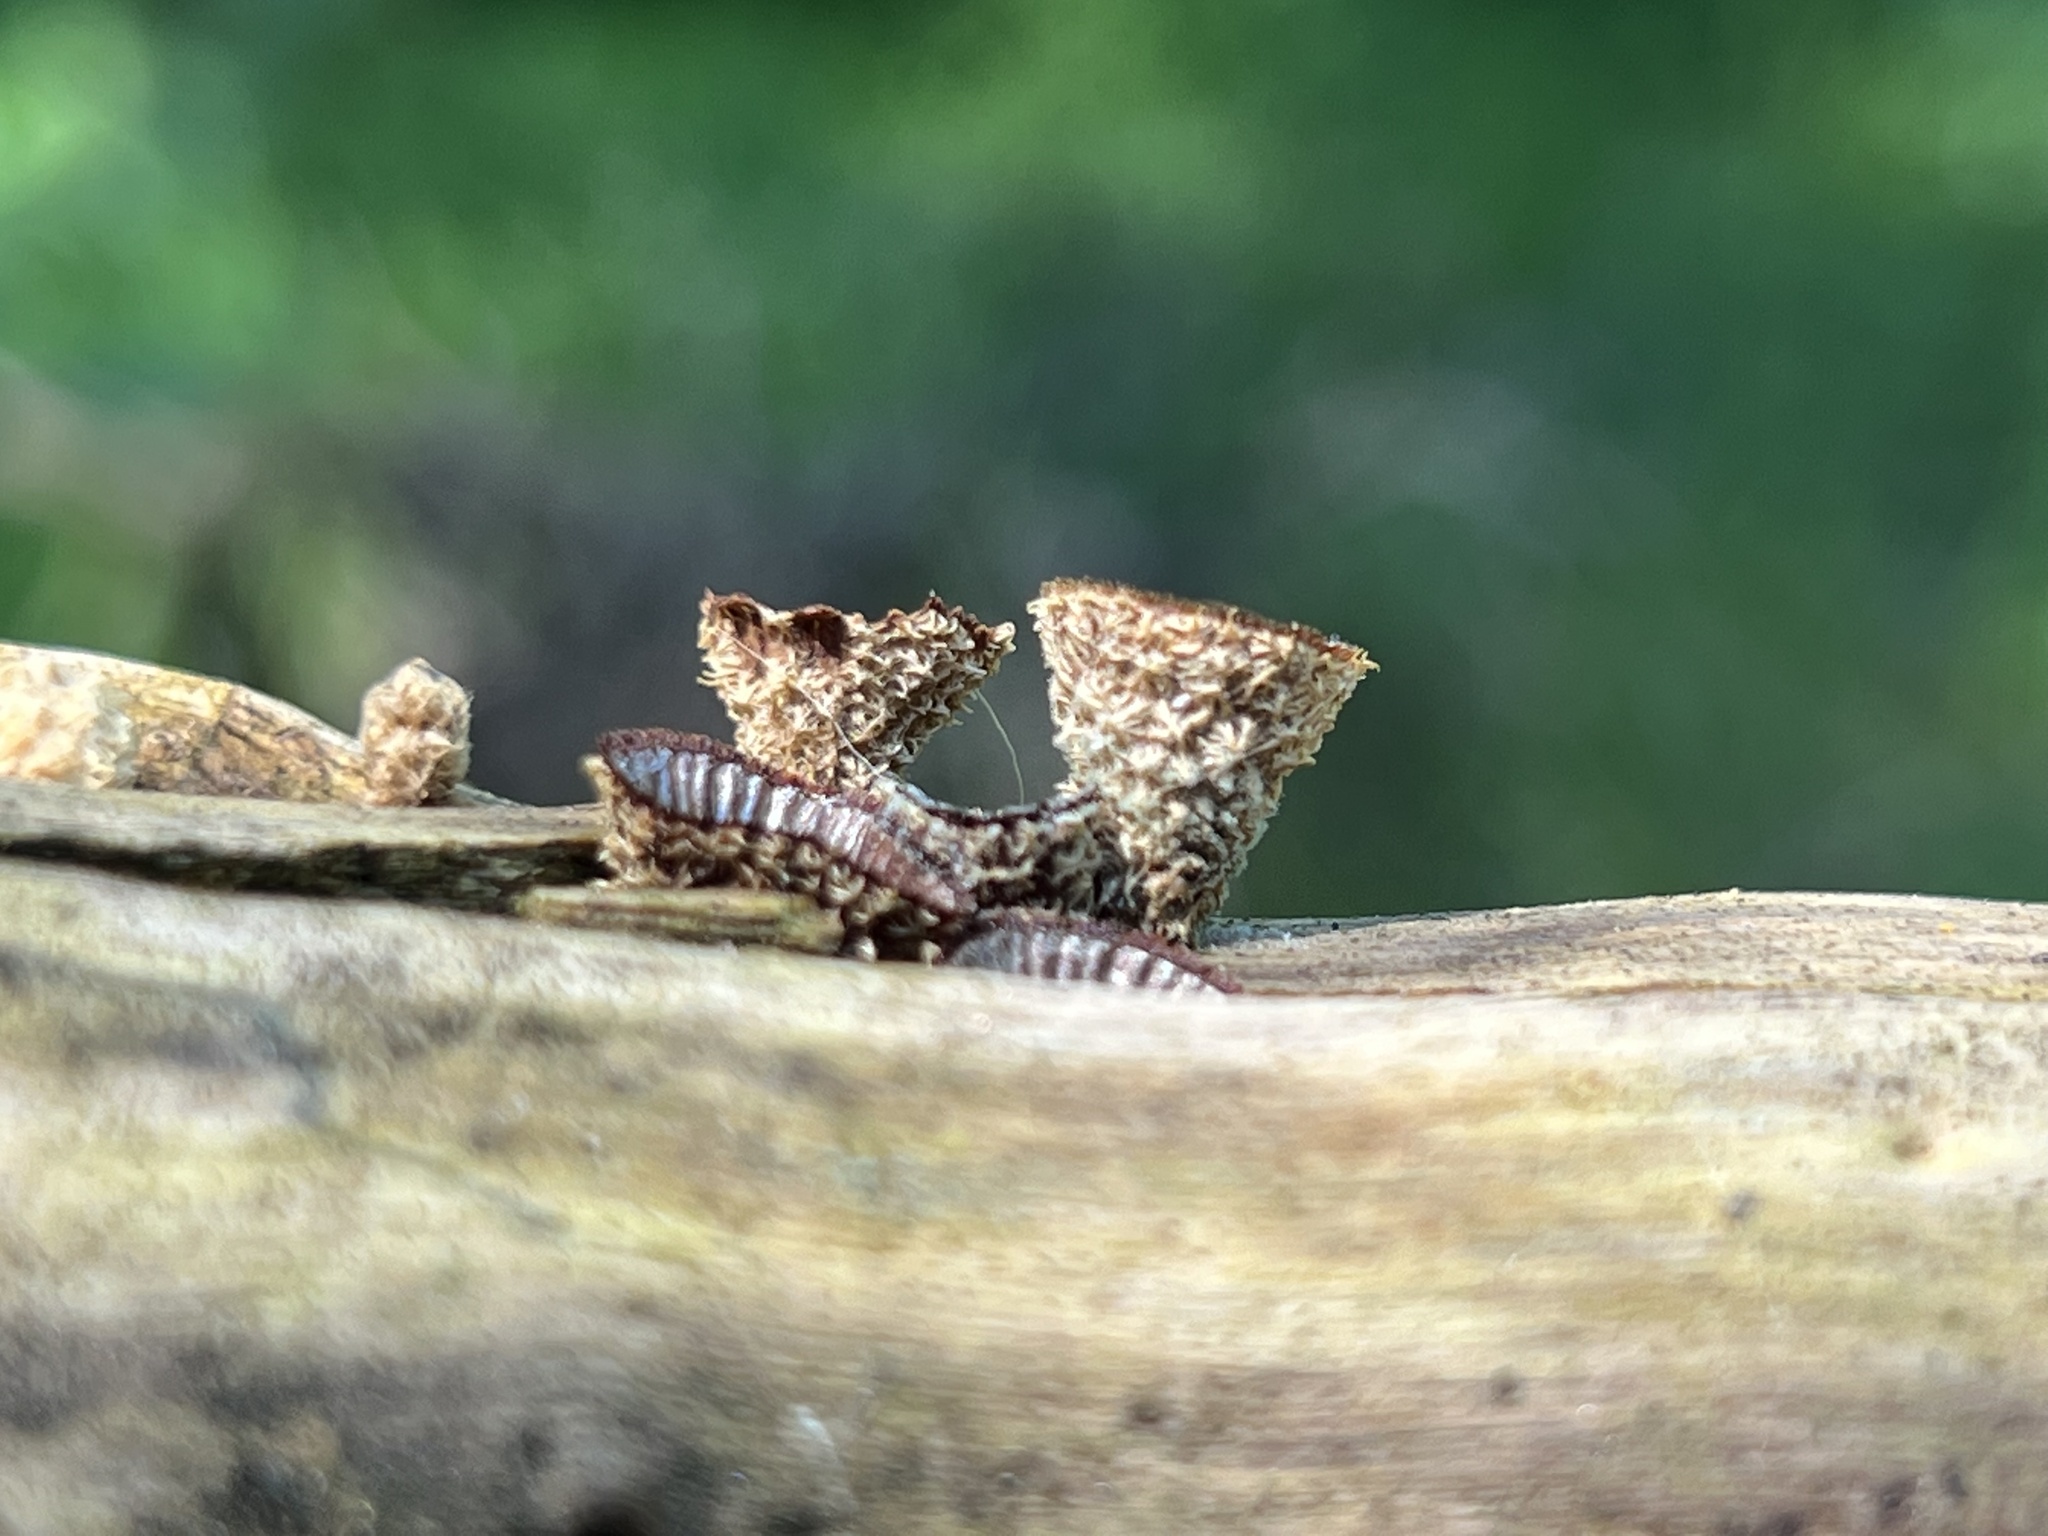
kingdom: Fungi
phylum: Basidiomycota
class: Agaricomycetes
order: Agaricales
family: Agaricaceae
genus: Cyathus
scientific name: Cyathus striatus
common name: Fluted bird's nest
